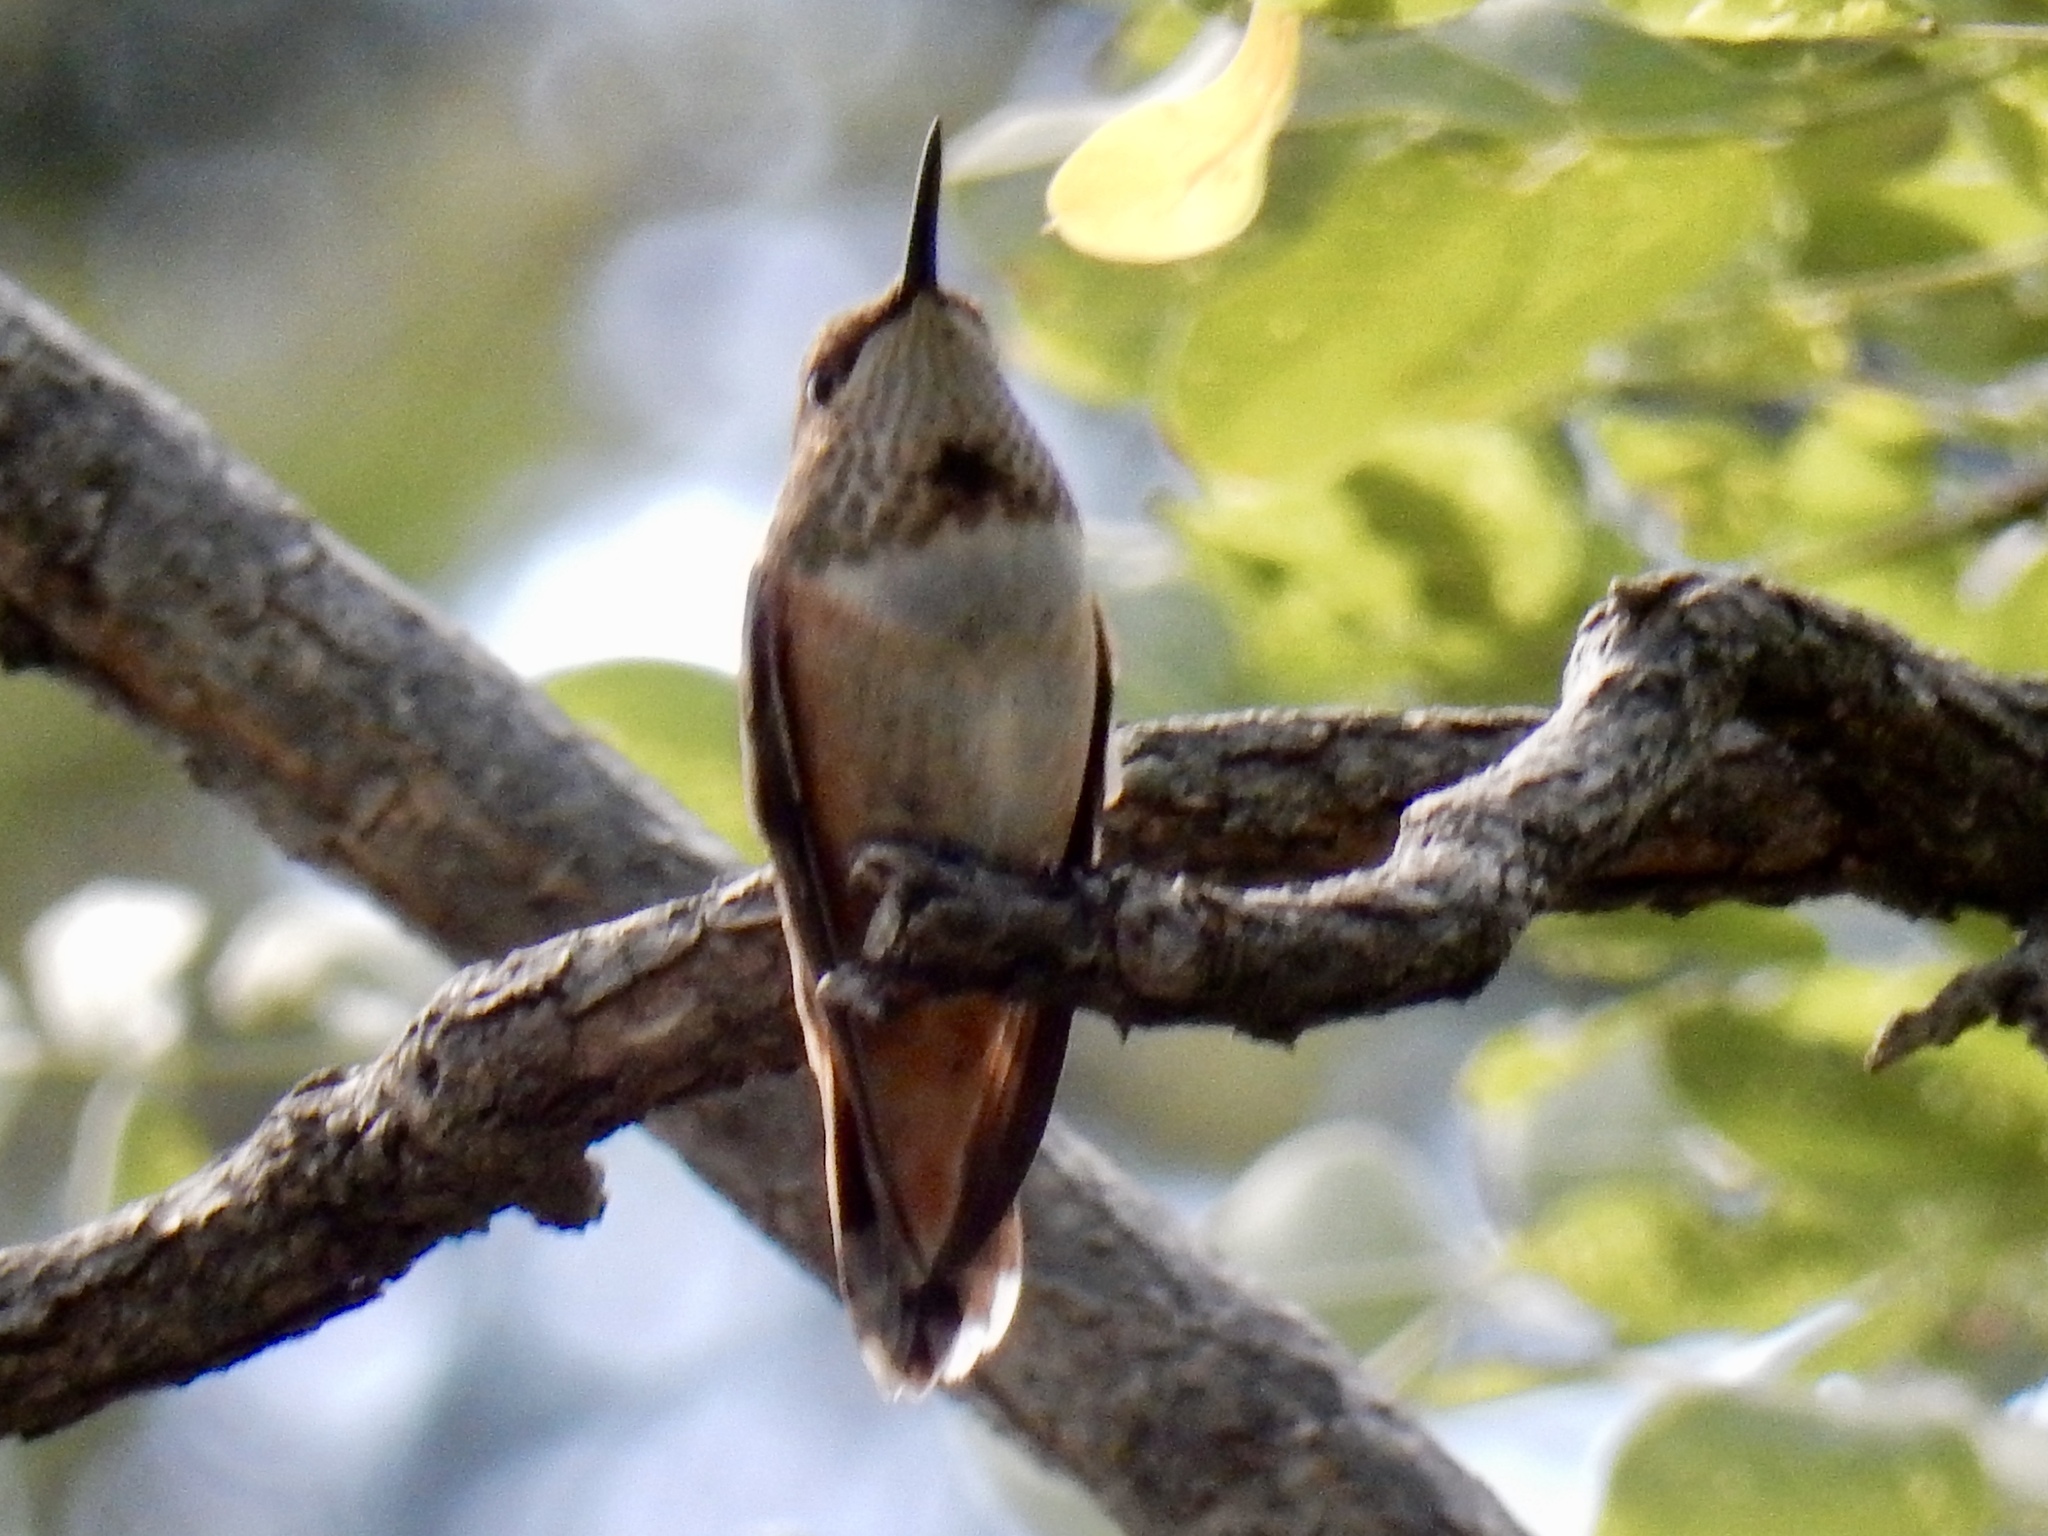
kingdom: Animalia
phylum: Chordata
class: Aves
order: Apodiformes
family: Trochilidae
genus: Selasphorus
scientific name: Selasphorus rufus
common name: Rufous hummingbird
